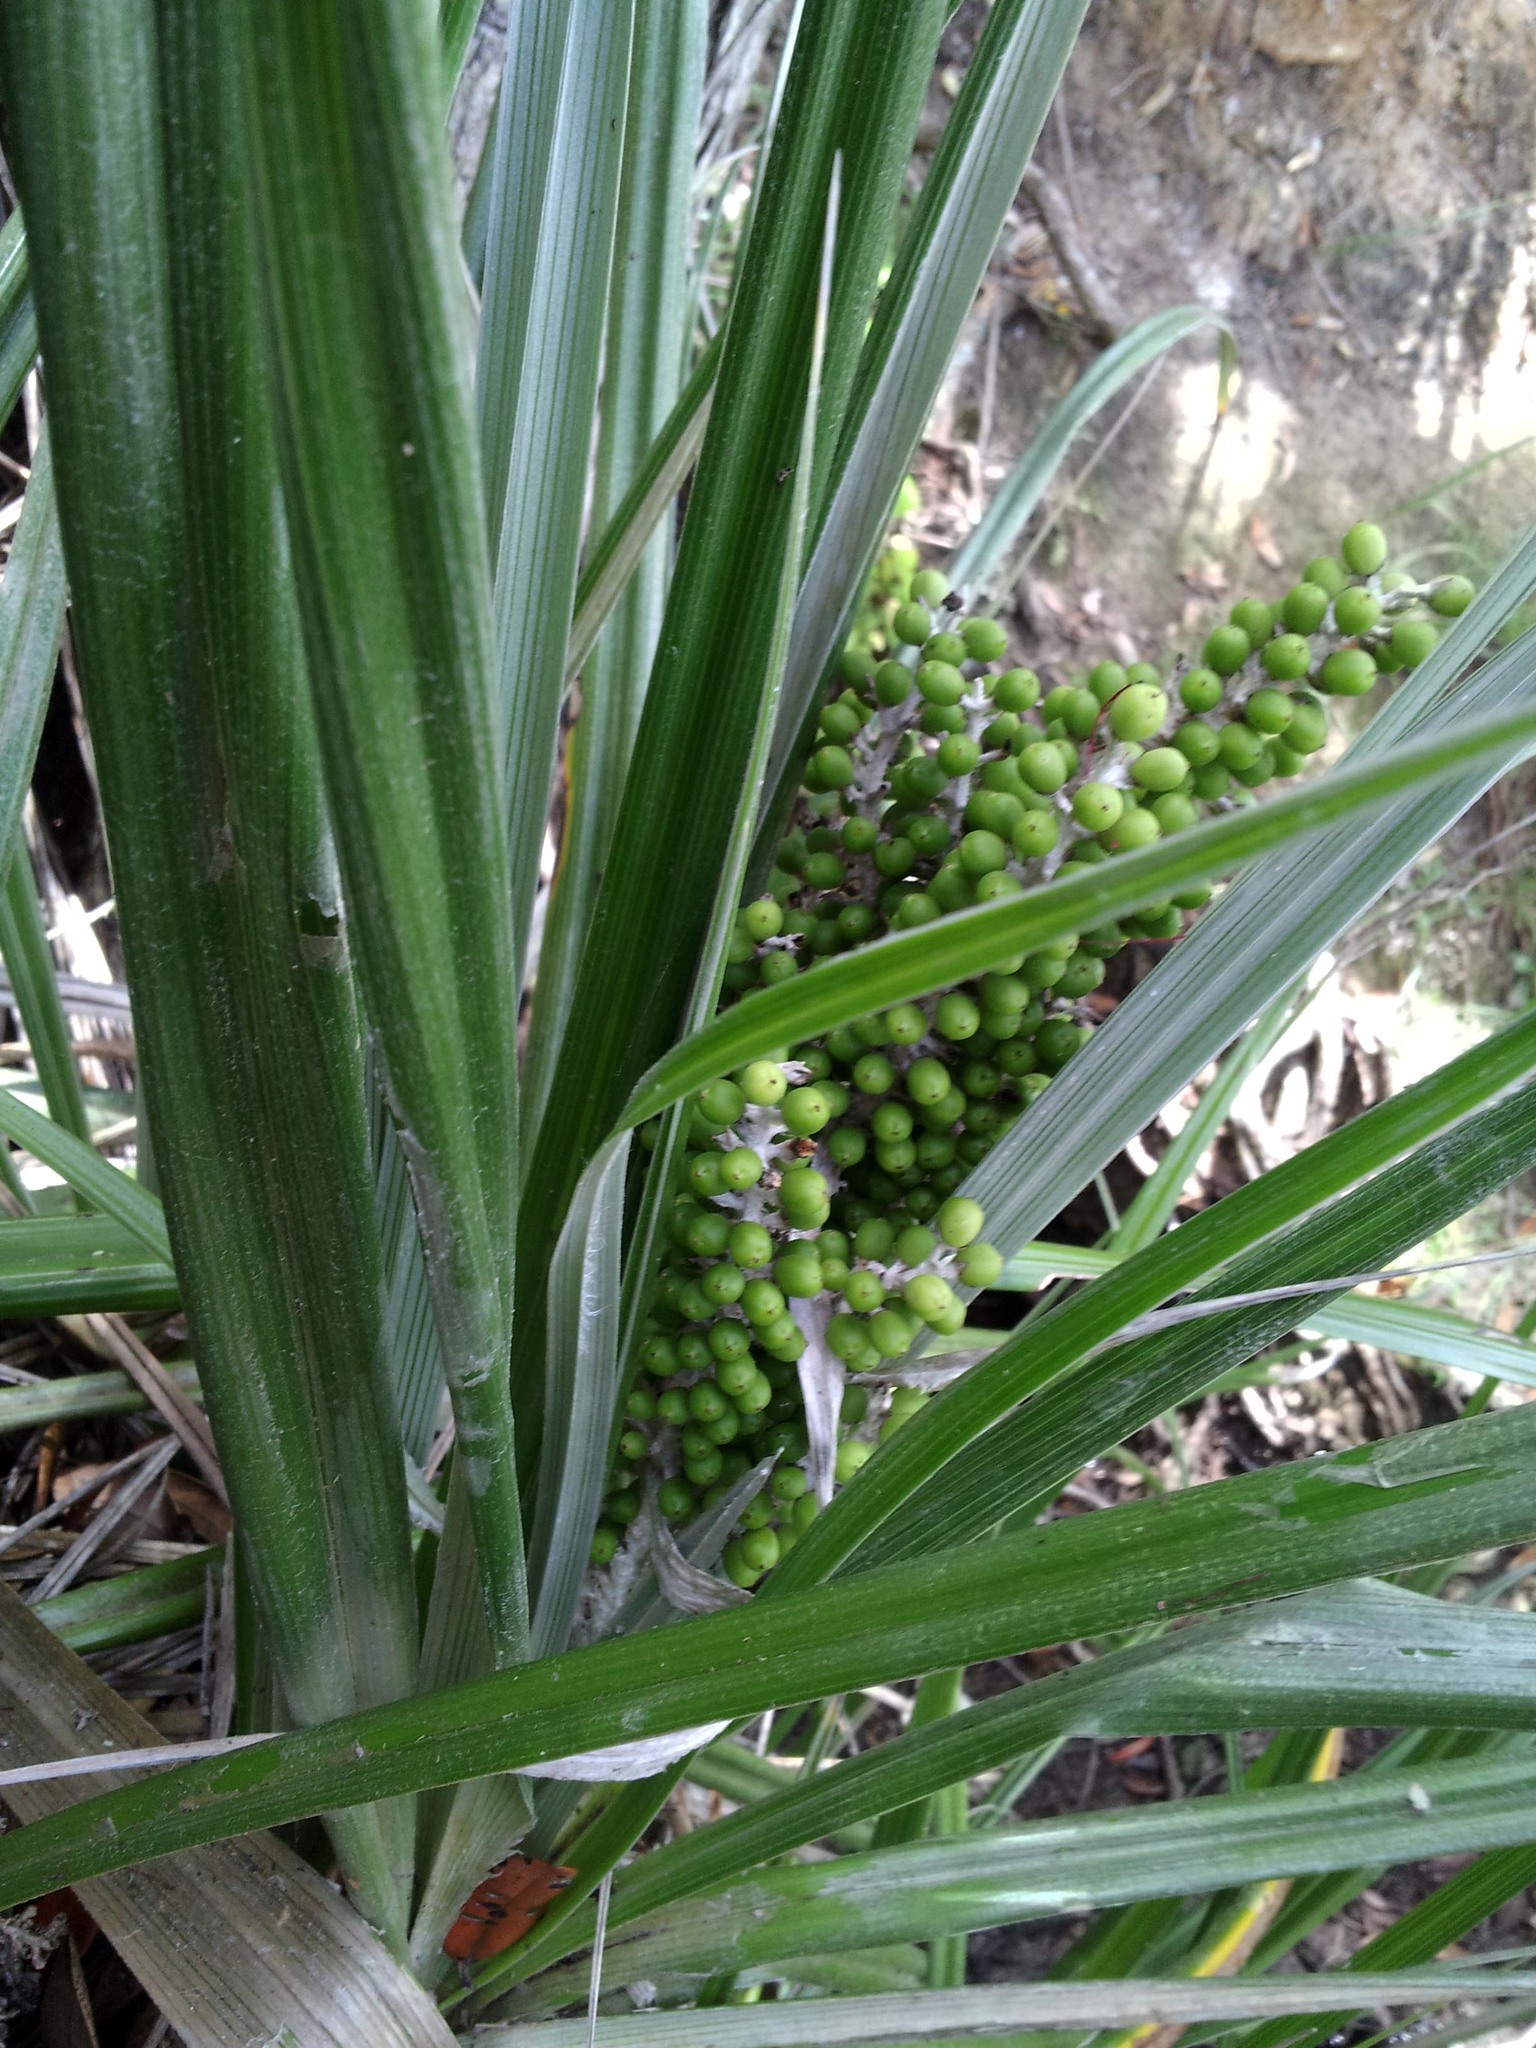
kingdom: Plantae
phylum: Tracheophyta
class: Liliopsida
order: Asparagales
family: Asteliaceae
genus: Astelia
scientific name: Astelia banksii
